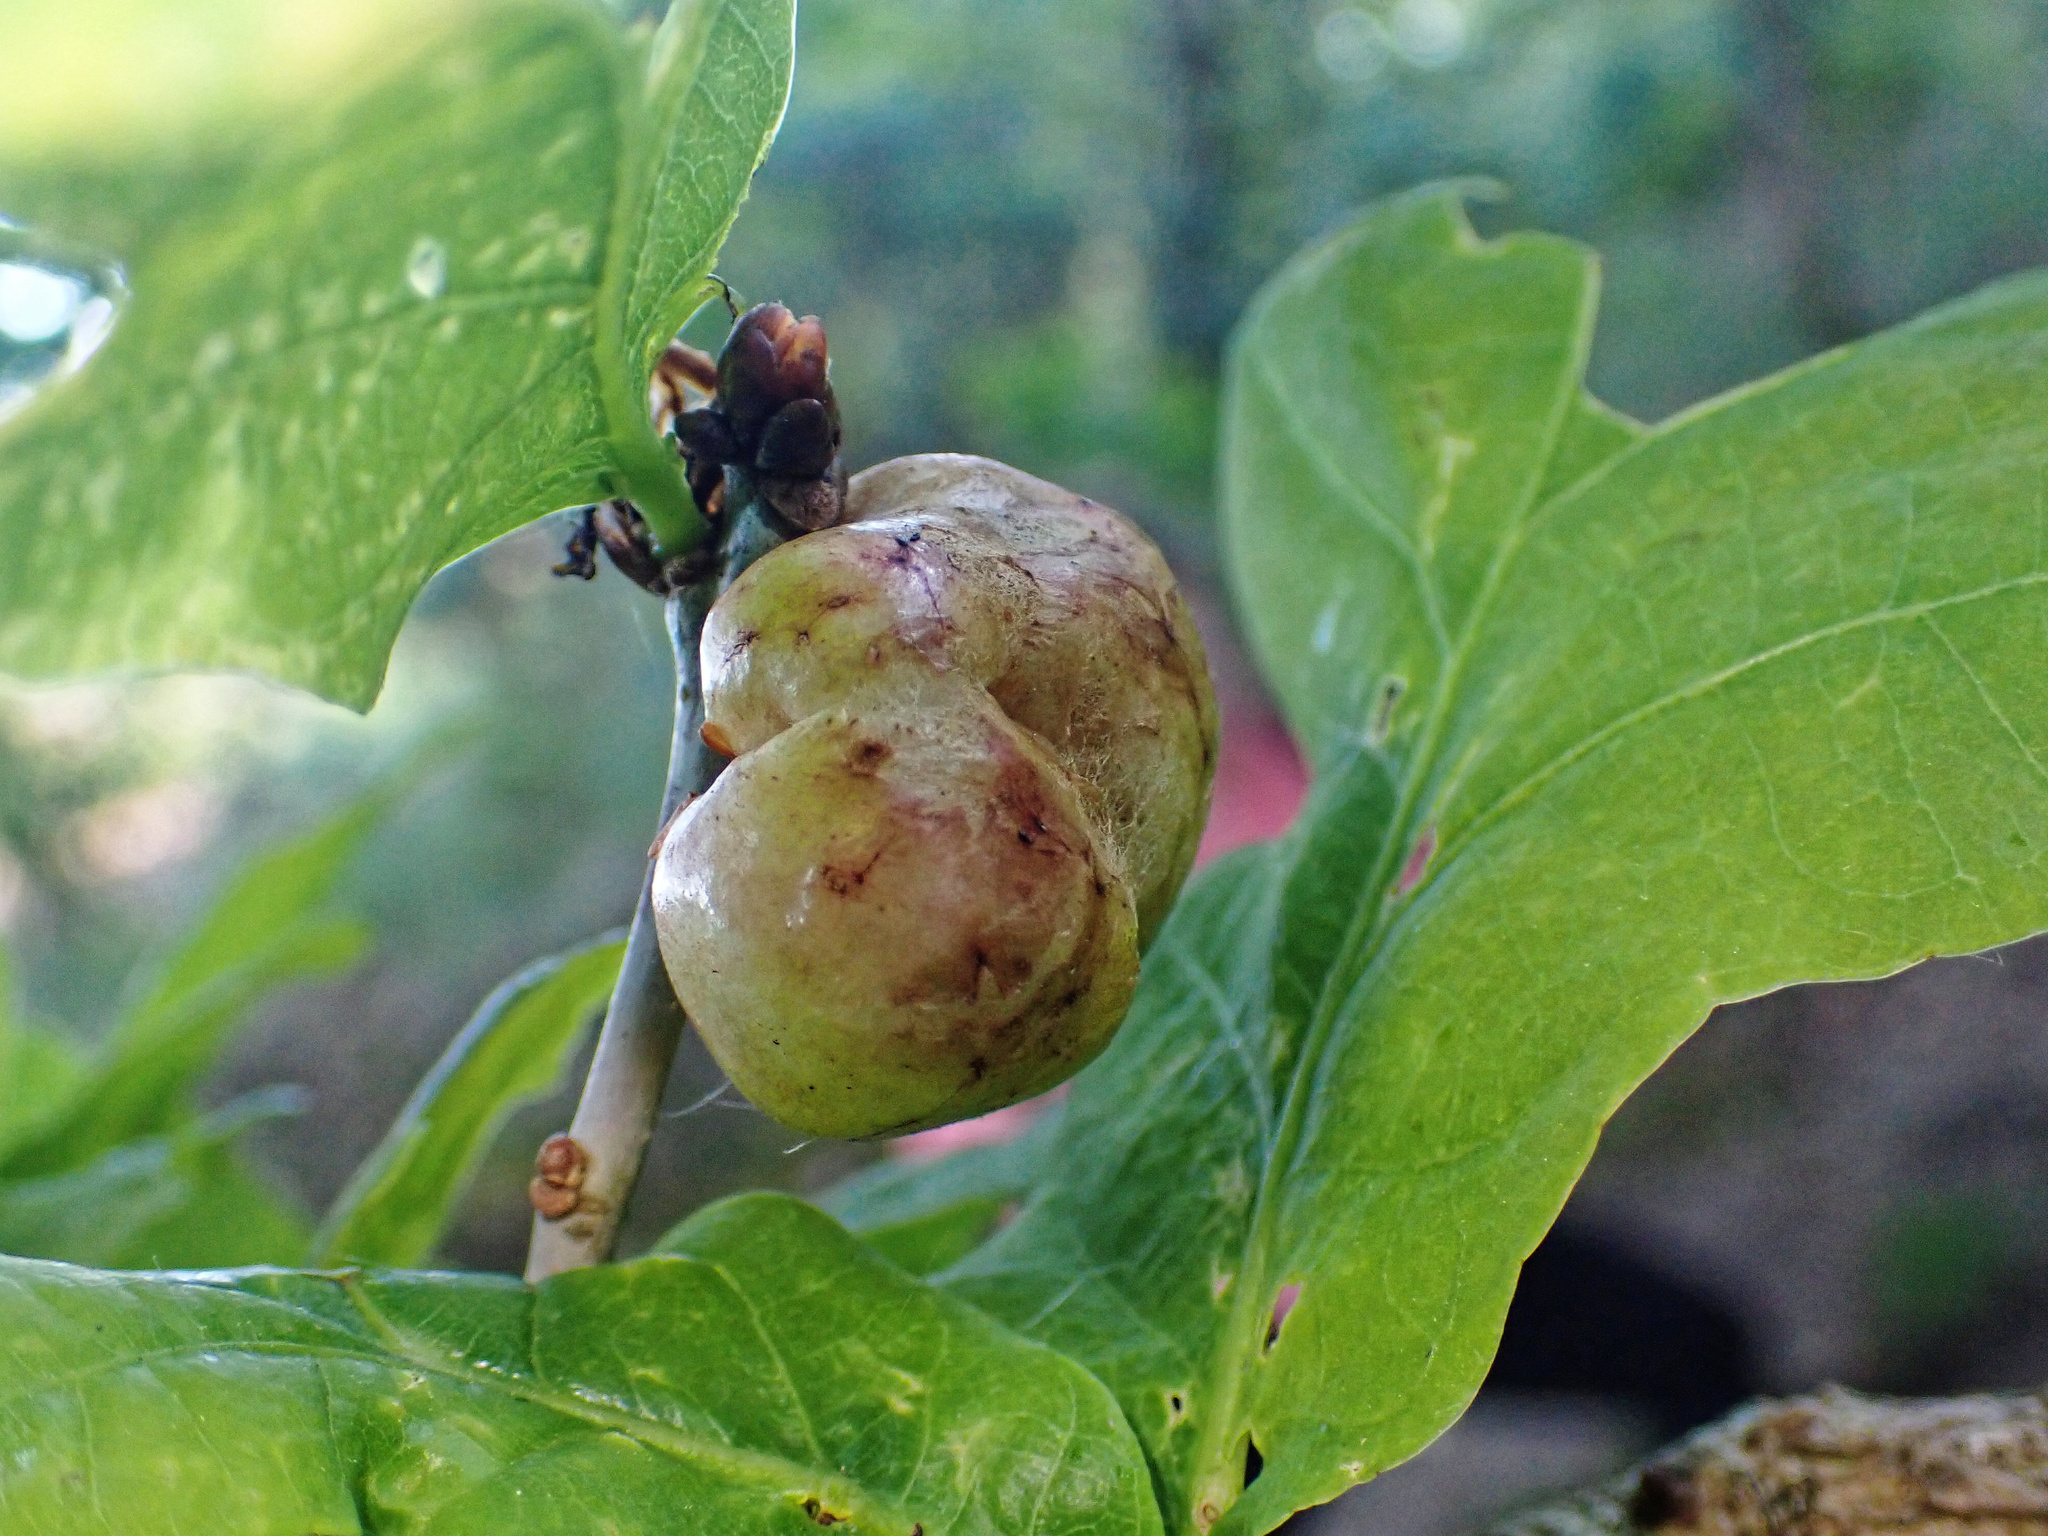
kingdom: Animalia
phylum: Arthropoda
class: Insecta
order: Hymenoptera
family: Cynipidae
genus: Biorhiza
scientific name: Biorhiza pallida
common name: Oak apple
